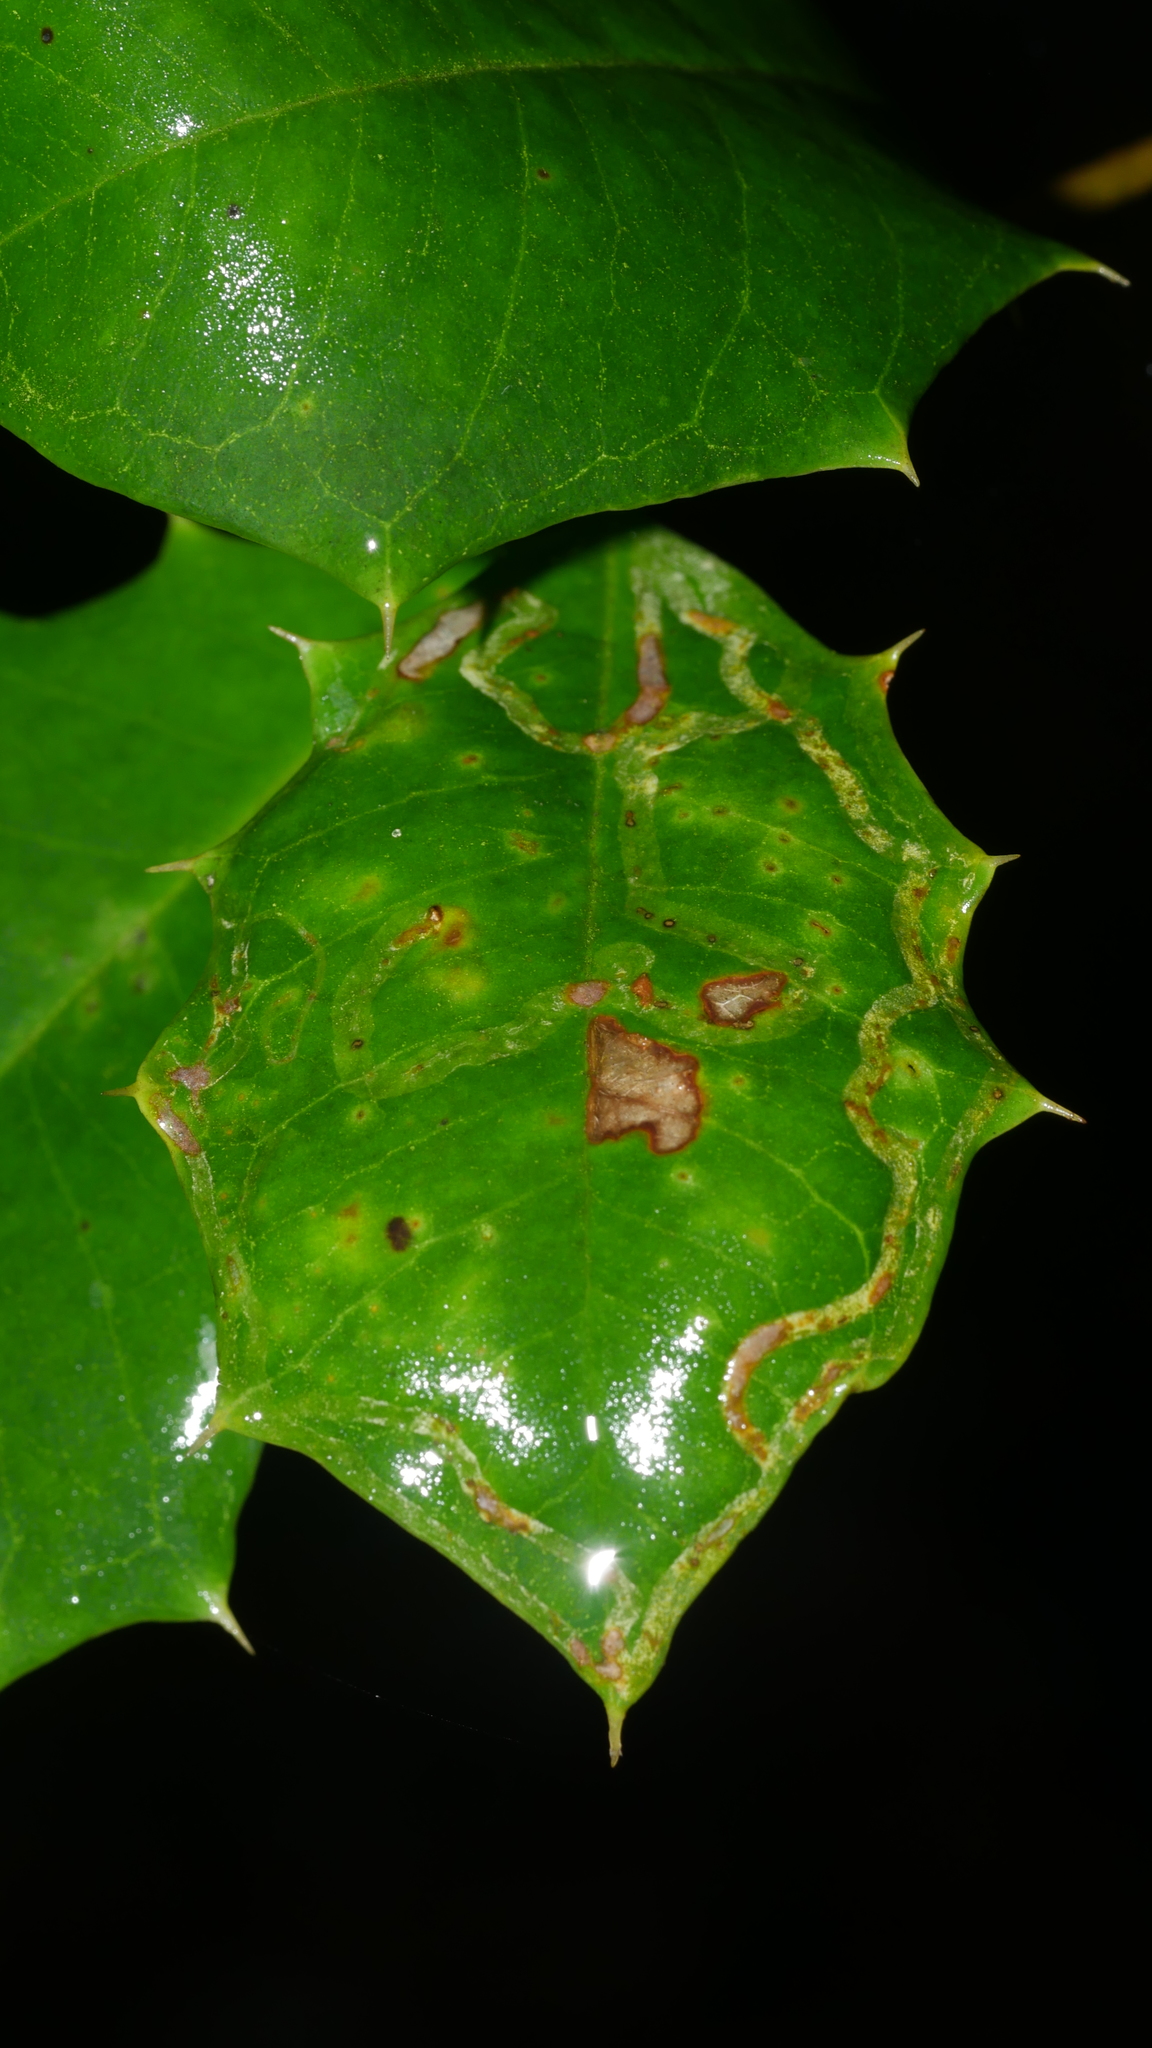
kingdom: Animalia
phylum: Arthropoda
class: Insecta
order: Diptera
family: Agromyzidae
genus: Phytomyza
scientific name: Phytomyza opacae
